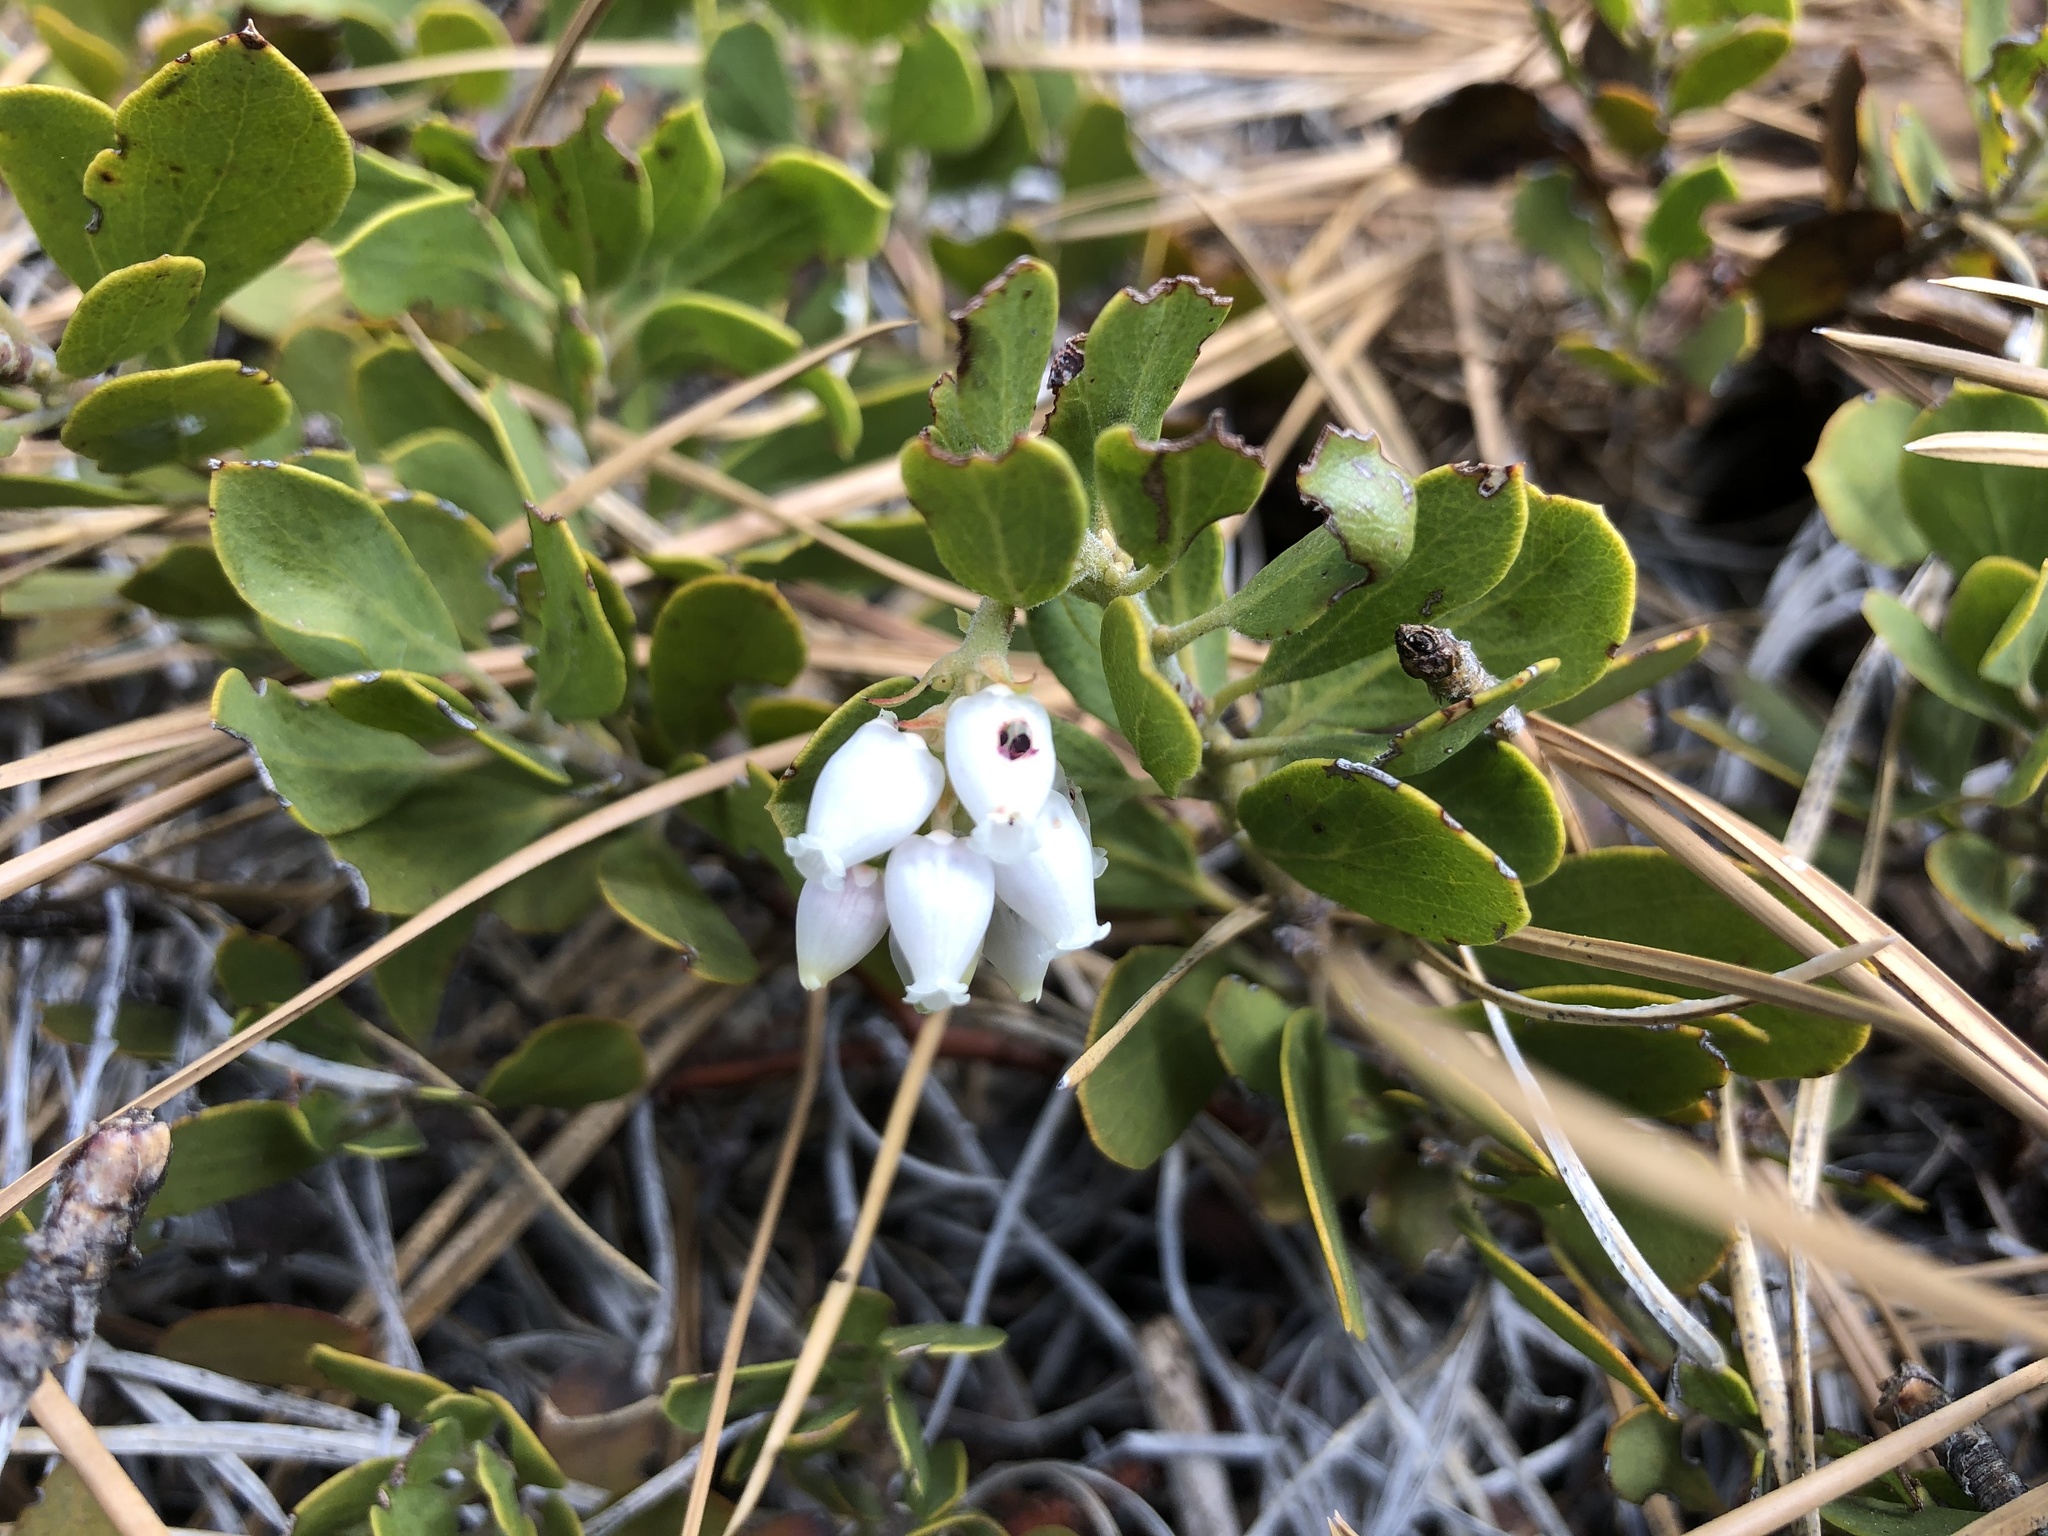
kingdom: Plantae
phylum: Tracheophyta
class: Magnoliopsida
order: Ericales
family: Ericaceae
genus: Arctostaphylos
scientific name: Arctostaphylos nevadensis
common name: Pinemat manzanita
